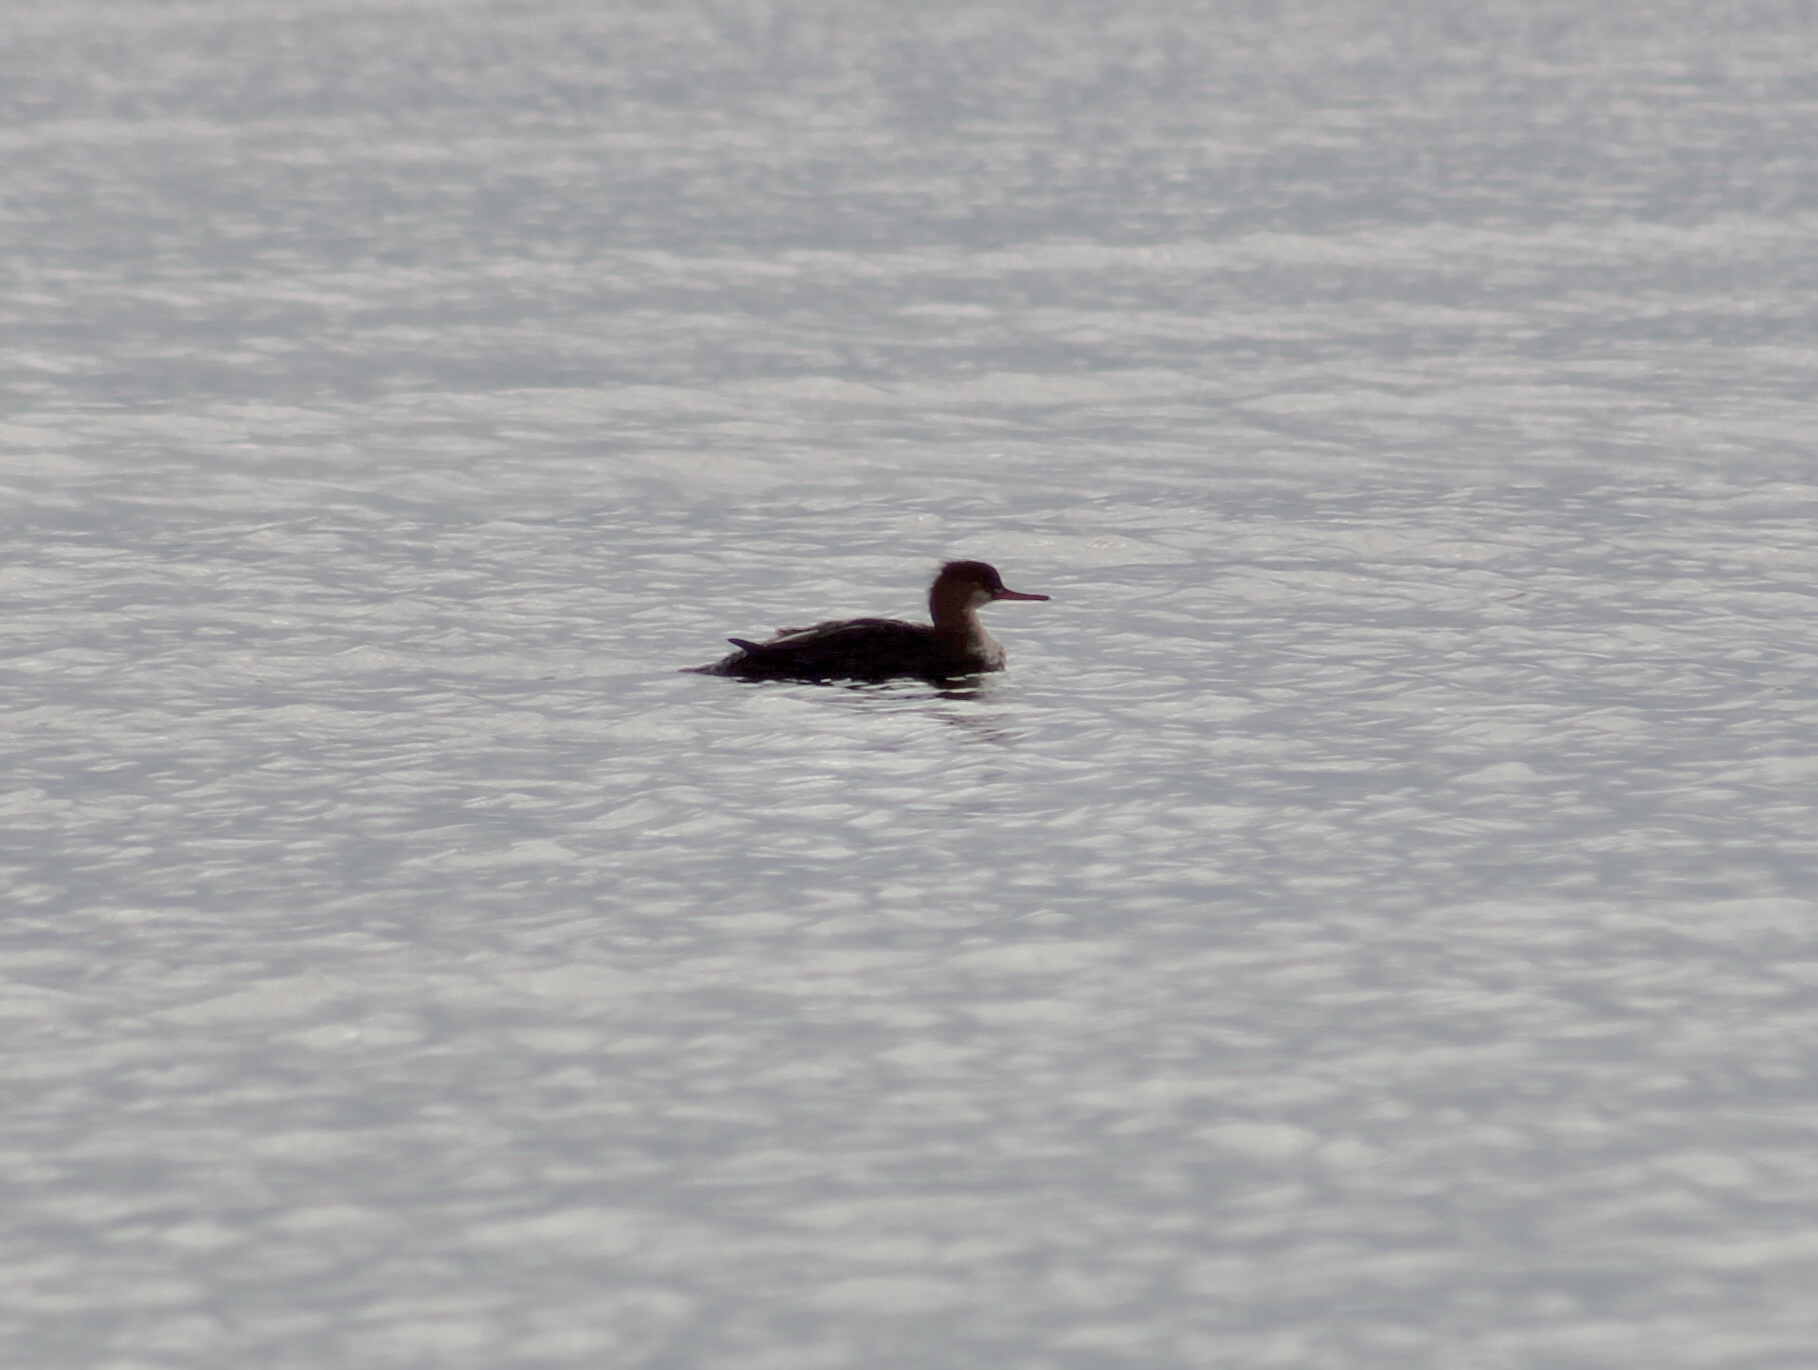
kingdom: Animalia
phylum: Chordata
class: Aves
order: Anseriformes
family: Anatidae
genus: Mergus
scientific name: Mergus serrator
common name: Red-breasted merganser
